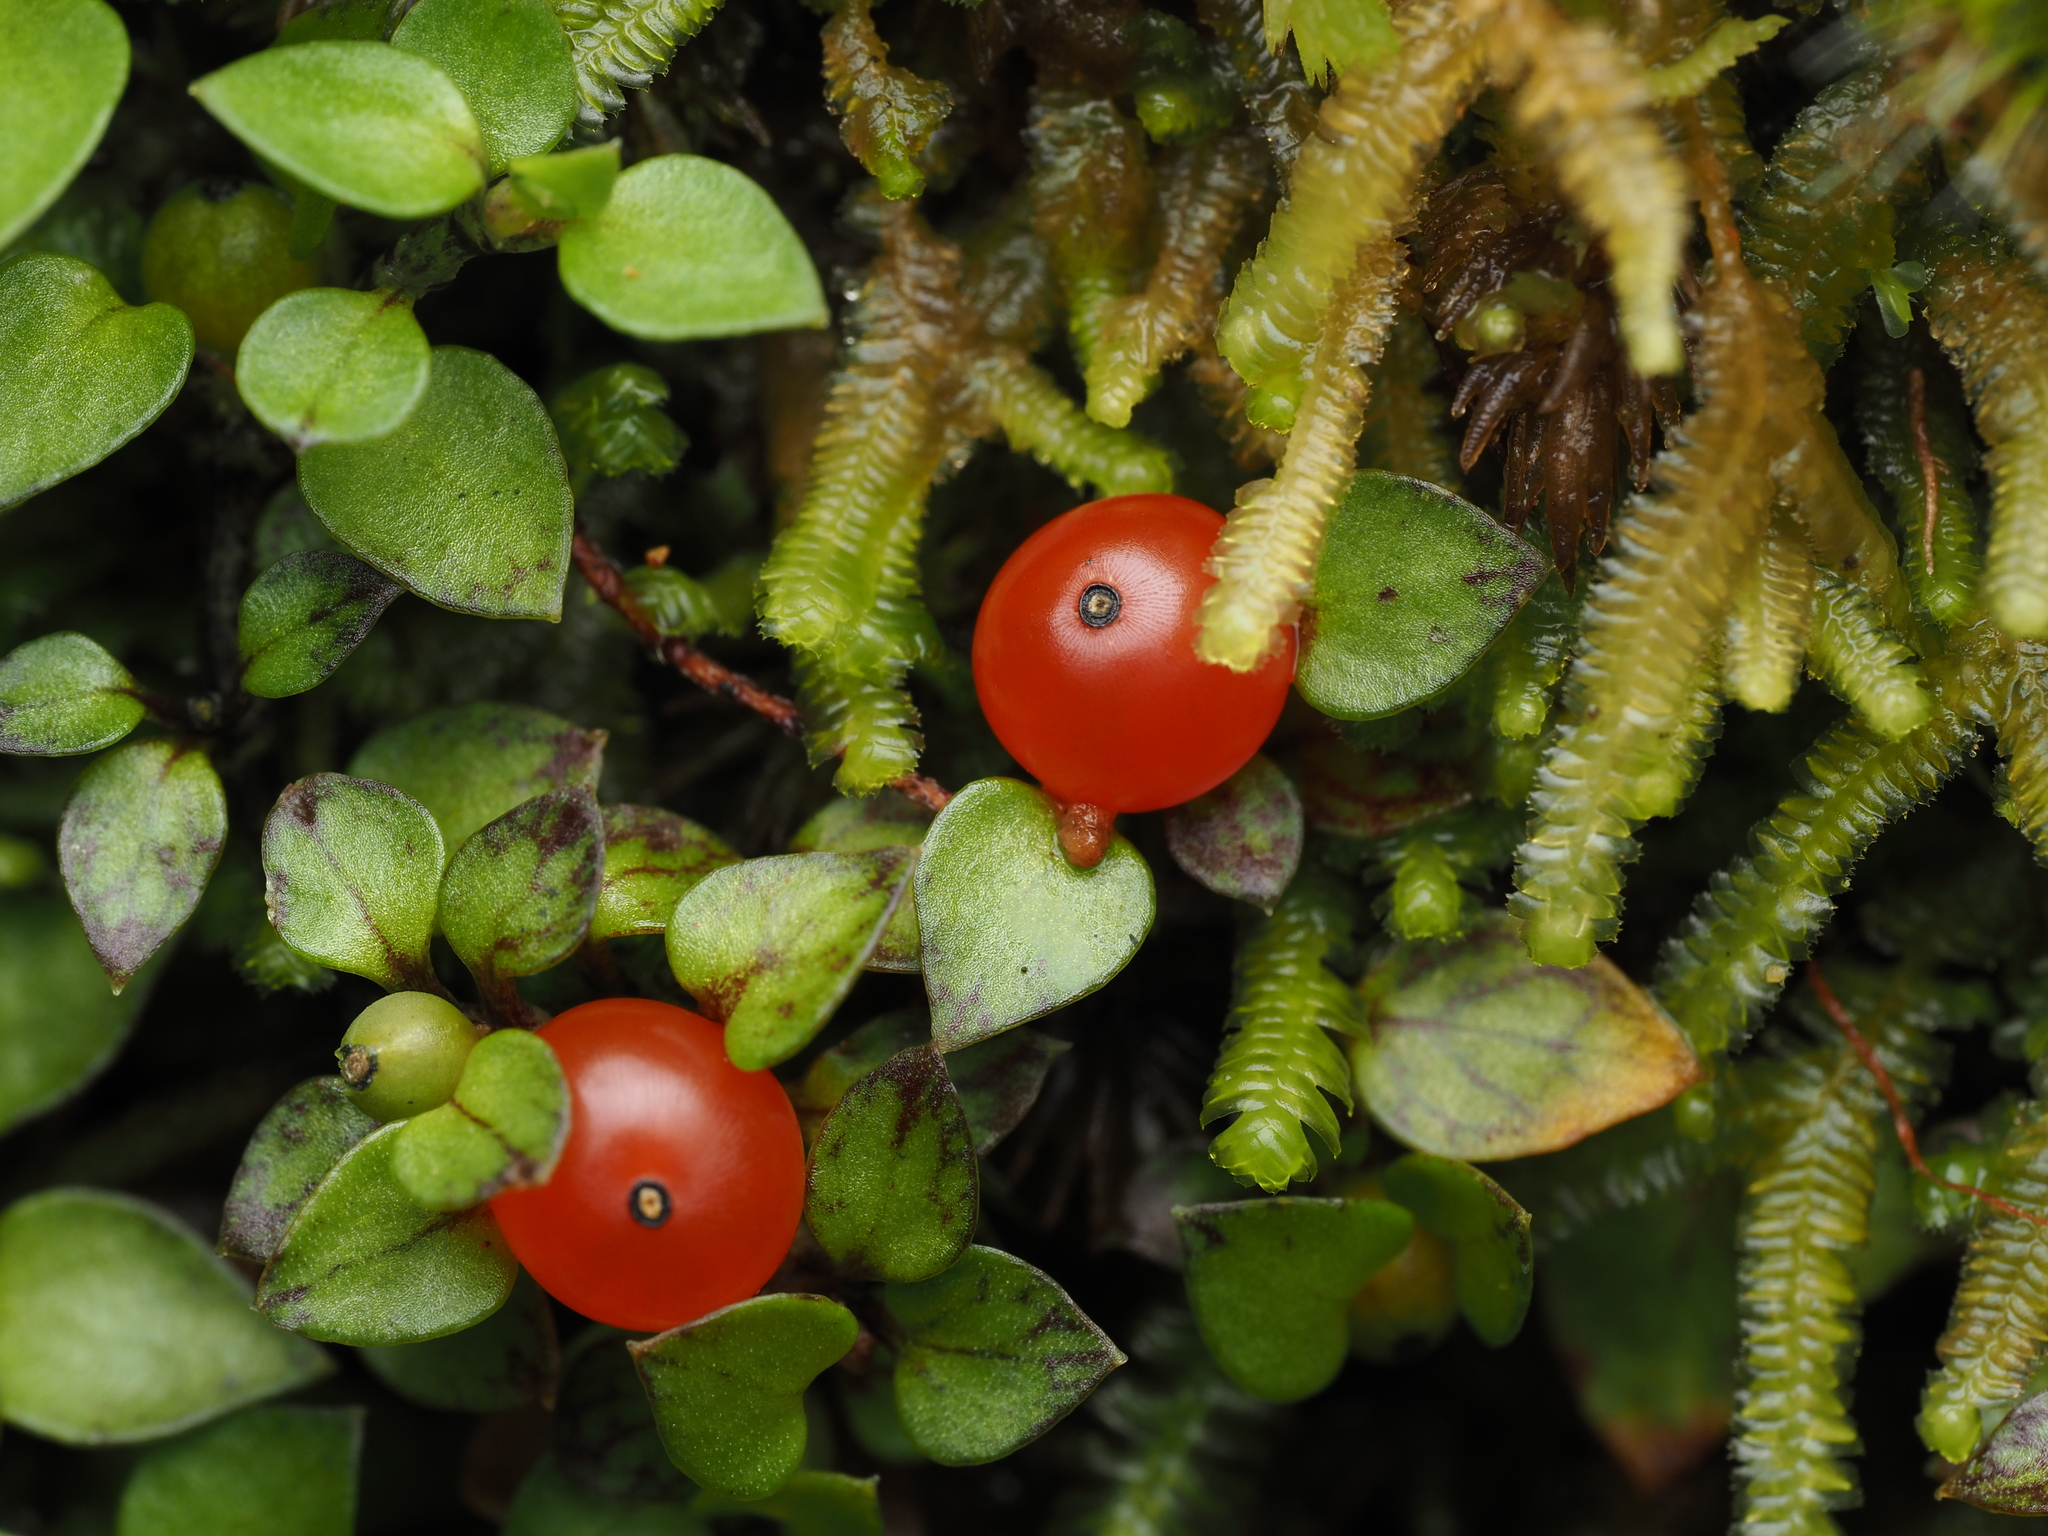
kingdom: Plantae
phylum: Tracheophyta
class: Magnoliopsida
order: Gentianales
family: Rubiaceae
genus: Nertera
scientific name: Nertera granadensis
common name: Beadplant
